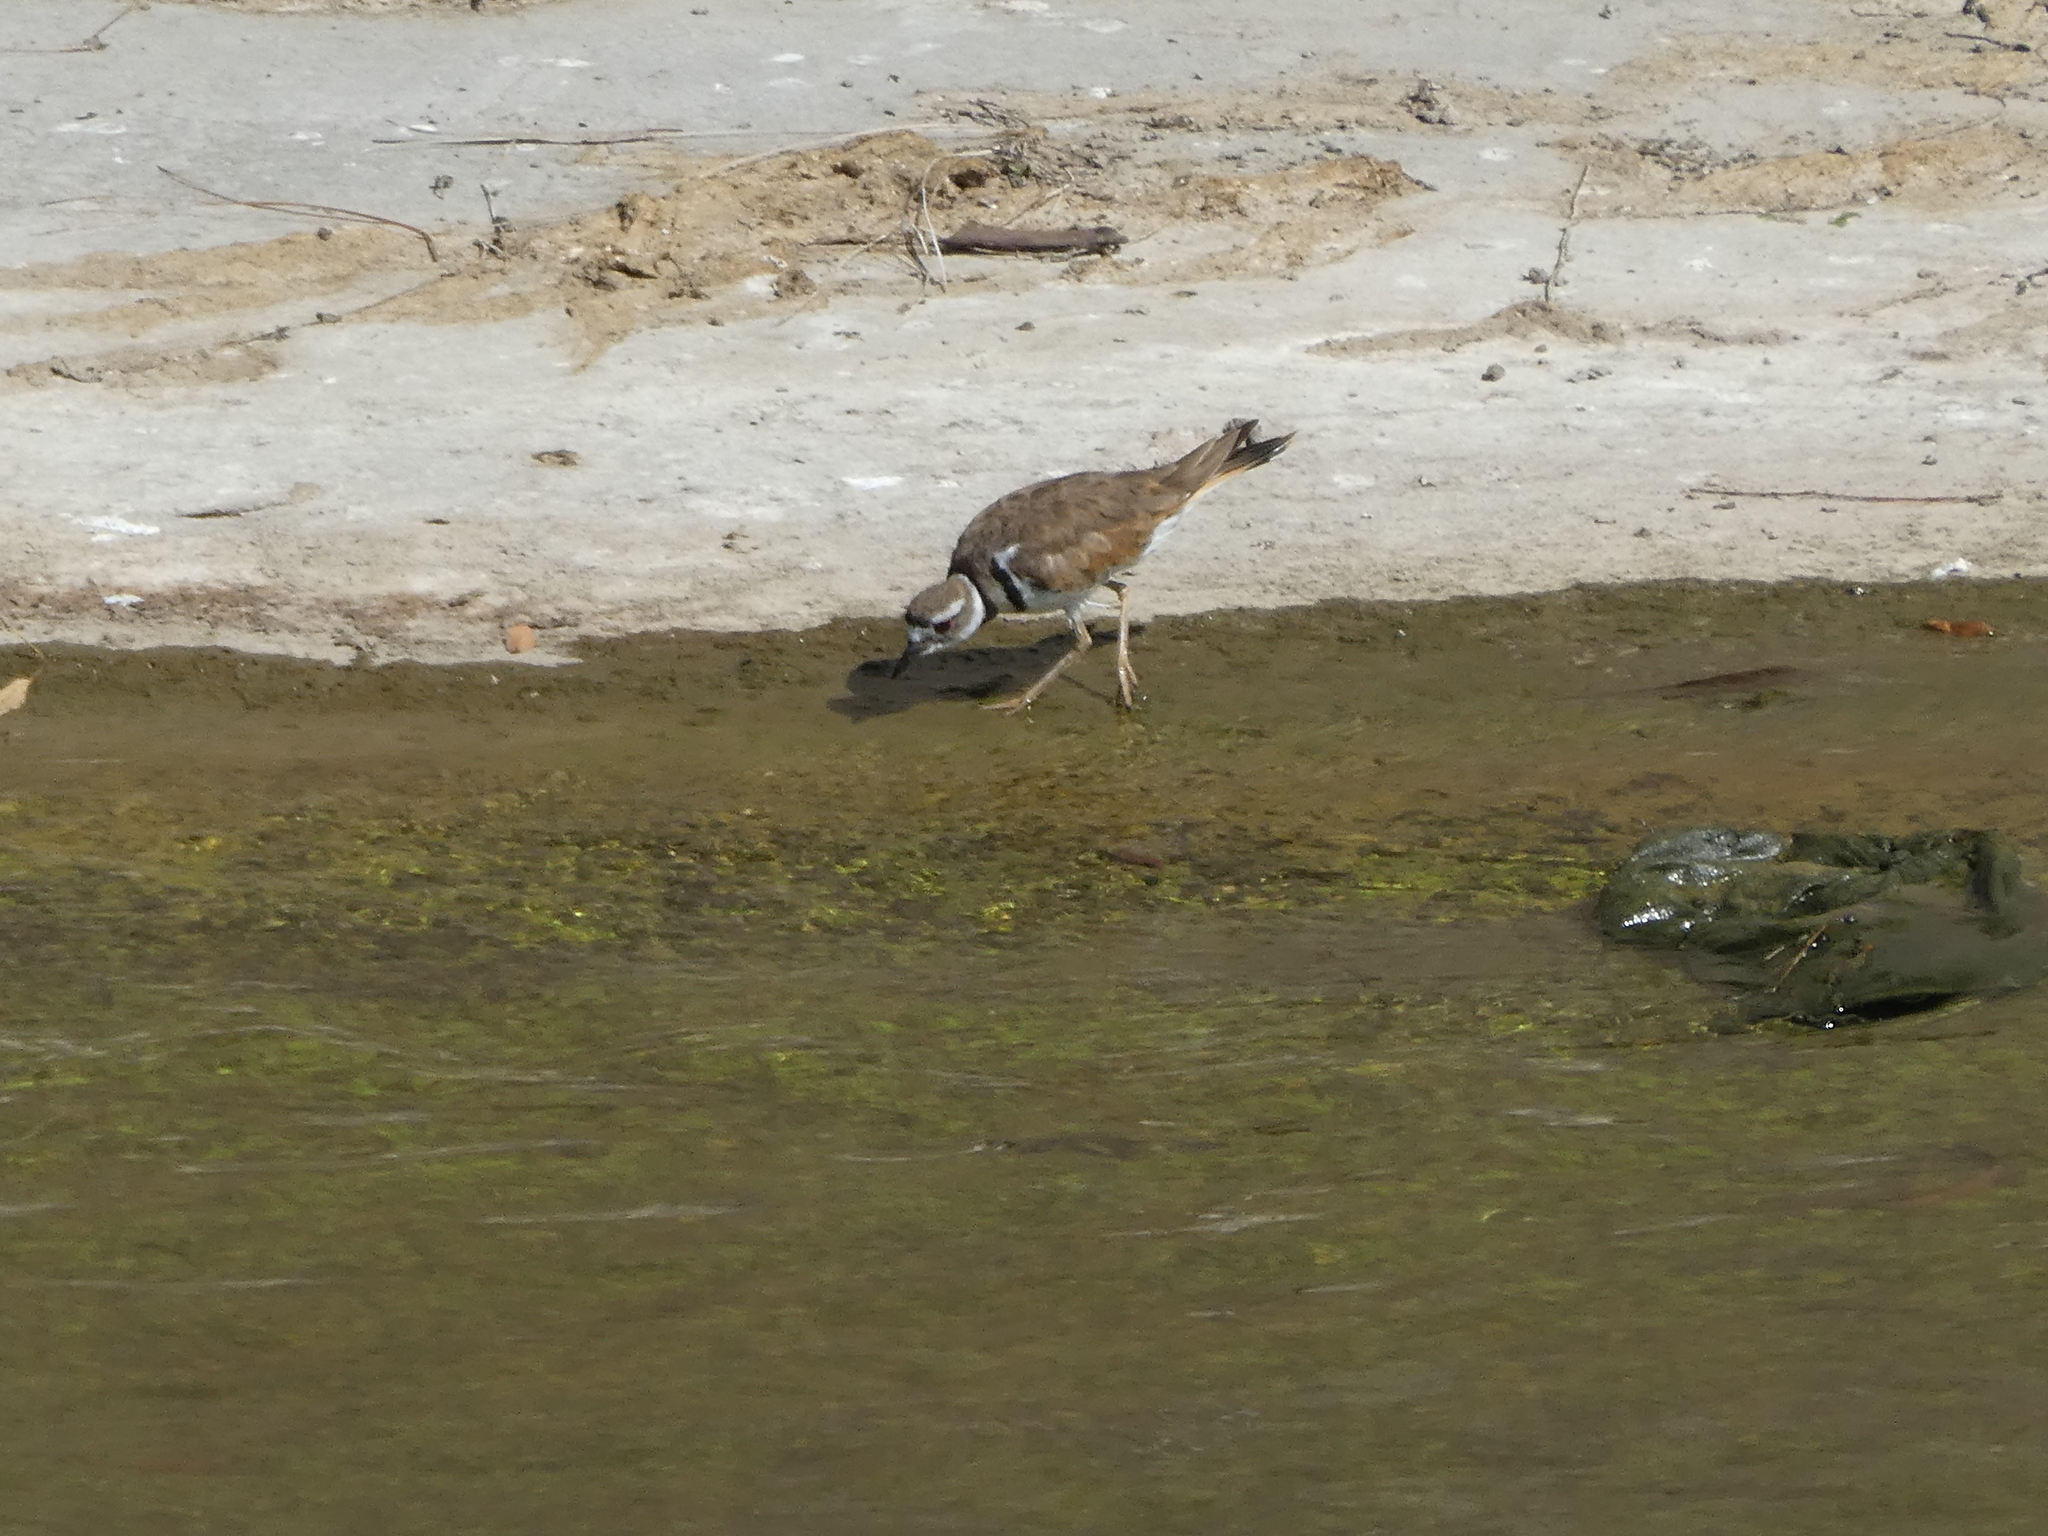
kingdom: Animalia
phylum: Chordata
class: Aves
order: Charadriiformes
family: Charadriidae
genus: Charadrius
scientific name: Charadrius vociferus
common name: Killdeer
